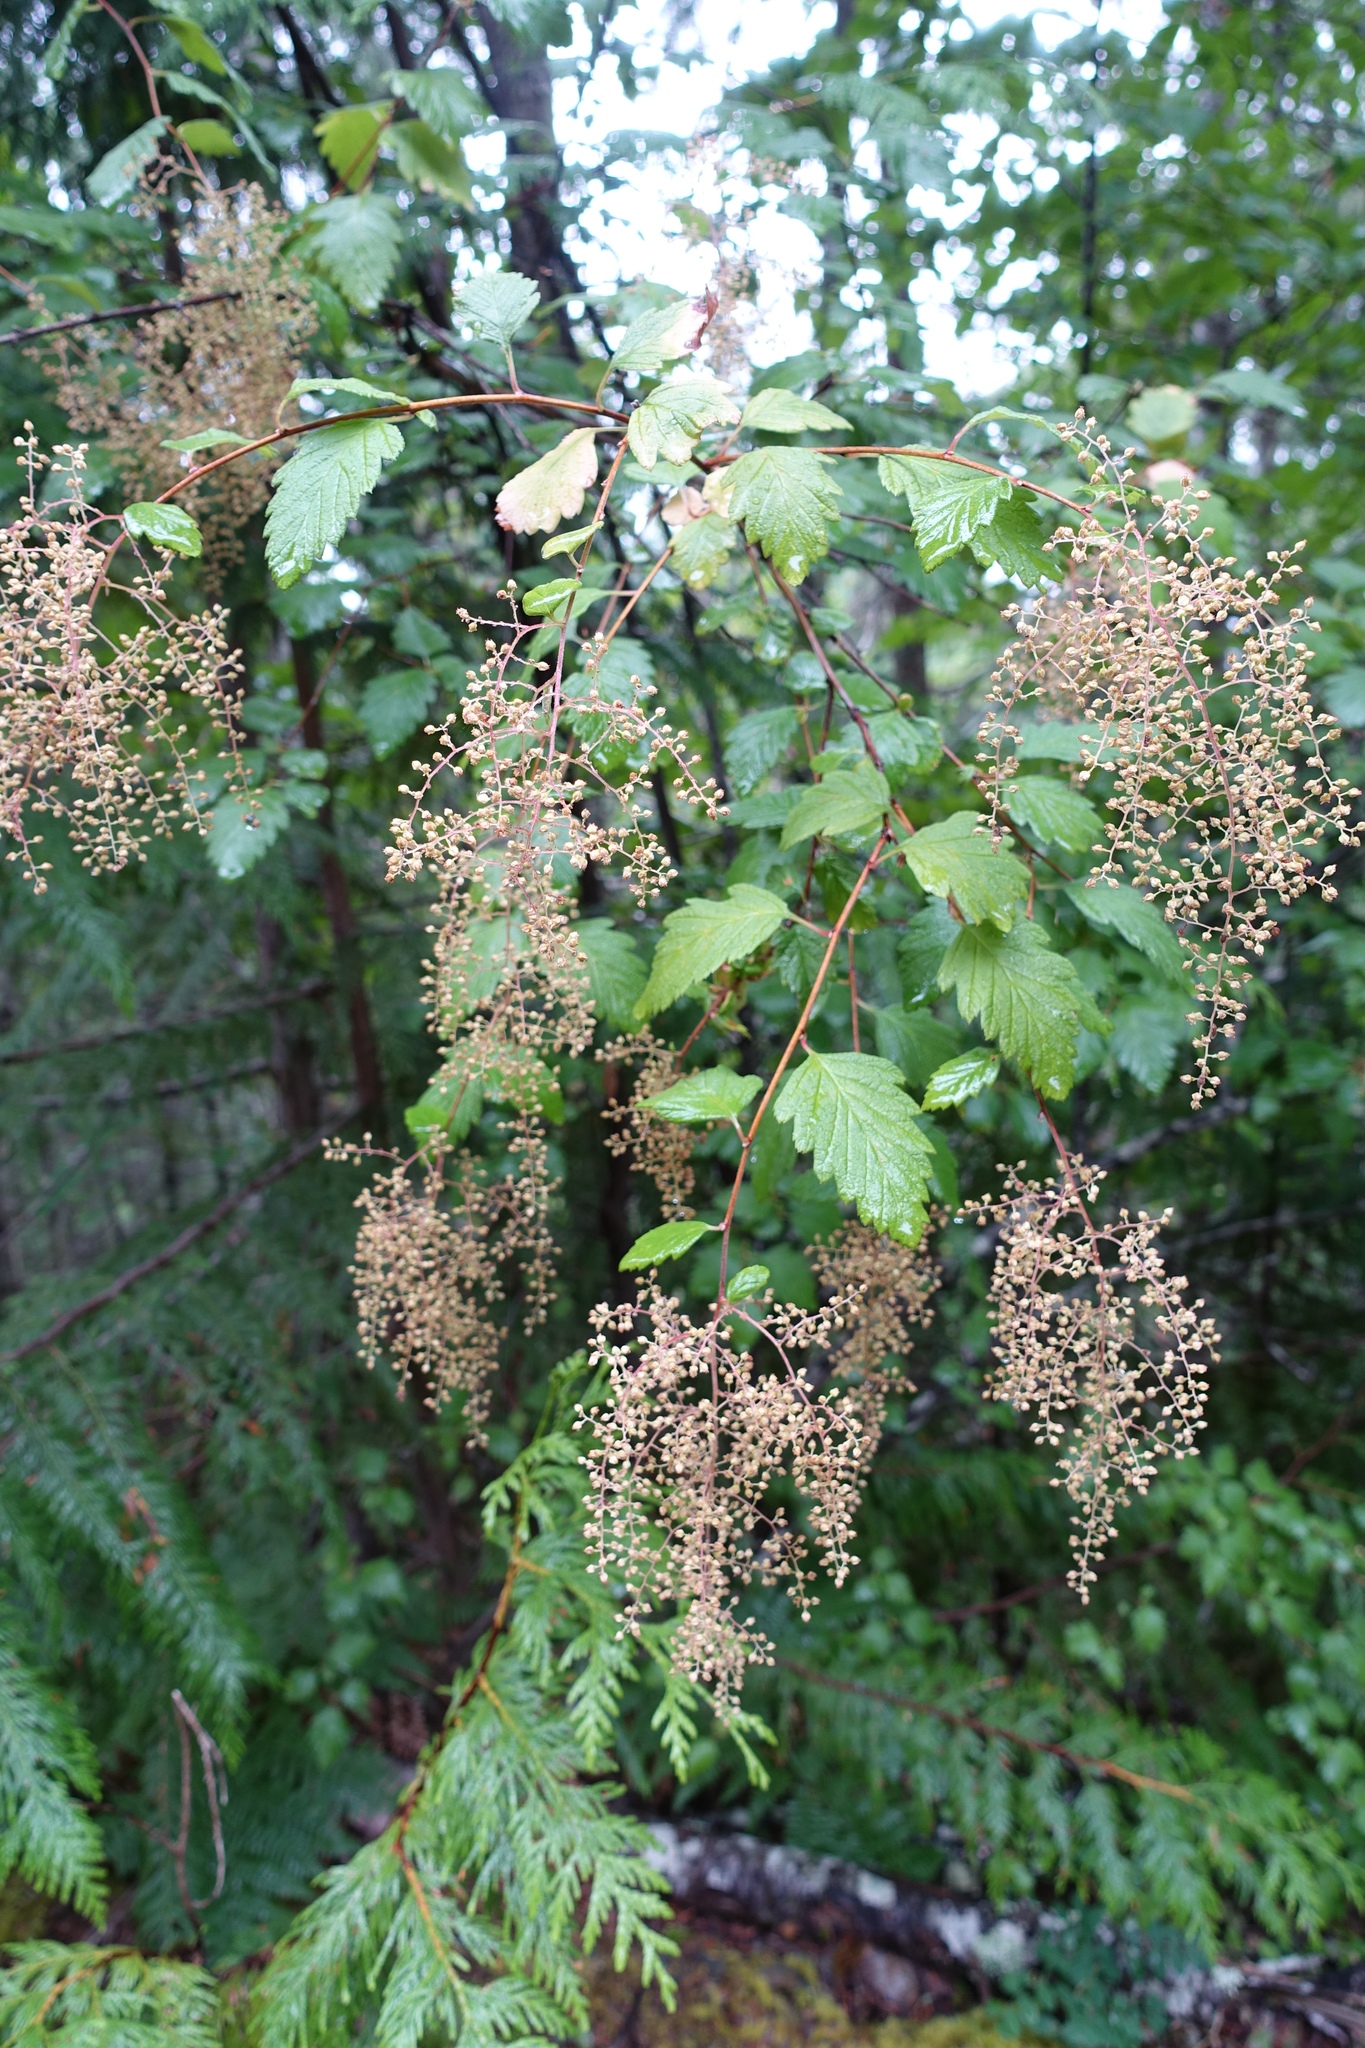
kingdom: Plantae
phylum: Tracheophyta
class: Magnoliopsida
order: Rosales
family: Rosaceae
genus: Holodiscus
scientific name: Holodiscus discolor
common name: Oceanspray
